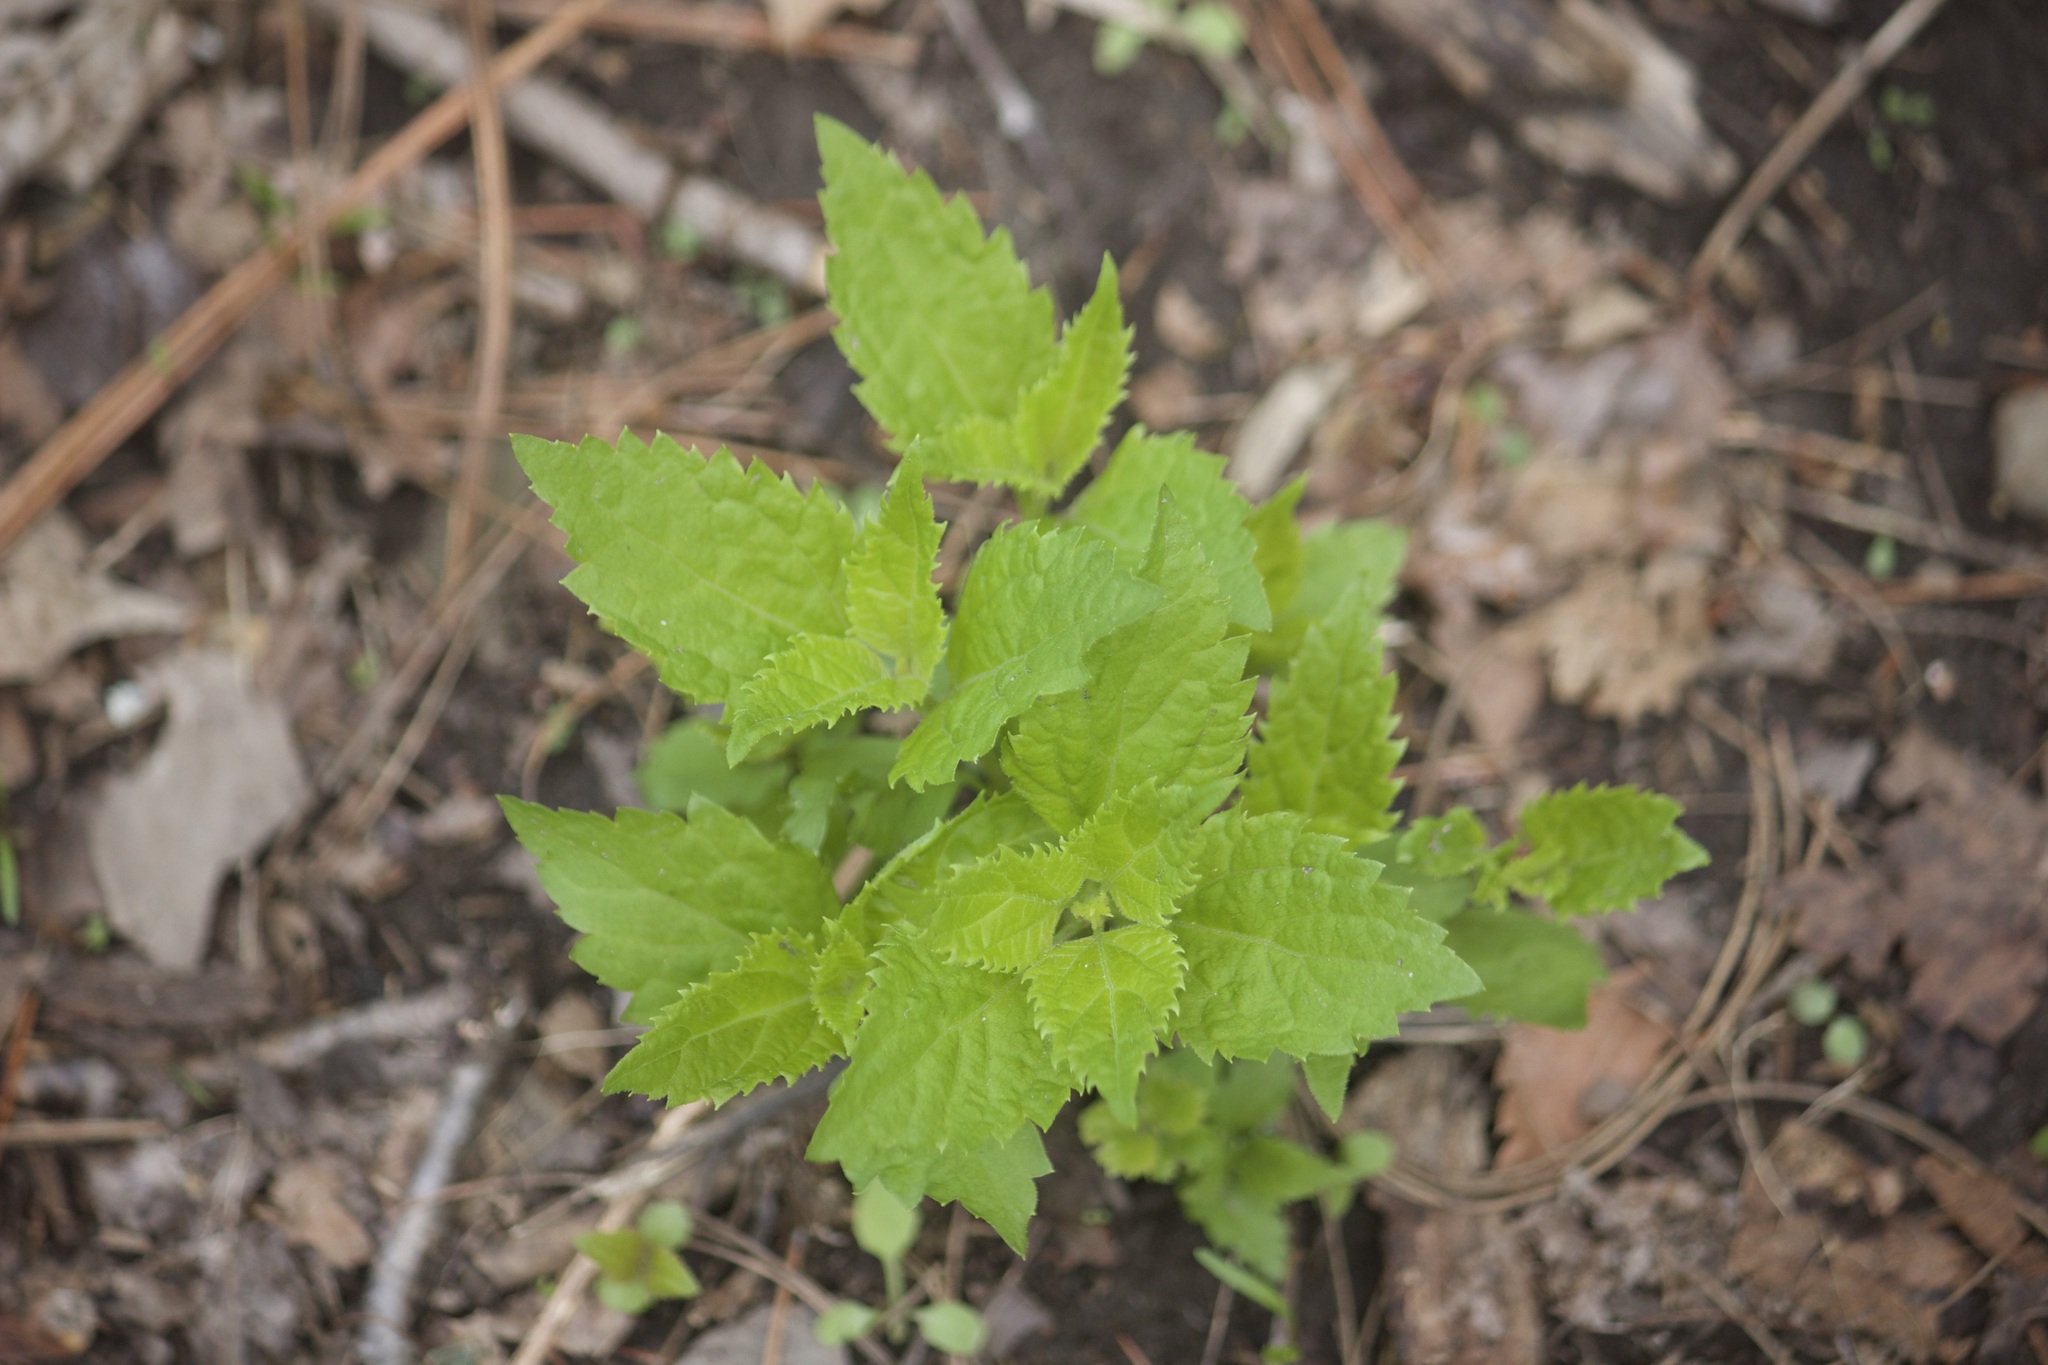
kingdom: Plantae
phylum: Tracheophyta
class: Magnoliopsida
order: Asterales
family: Asteraceae
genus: Ageratina
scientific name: Ageratina altissima
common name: White snakeroot
